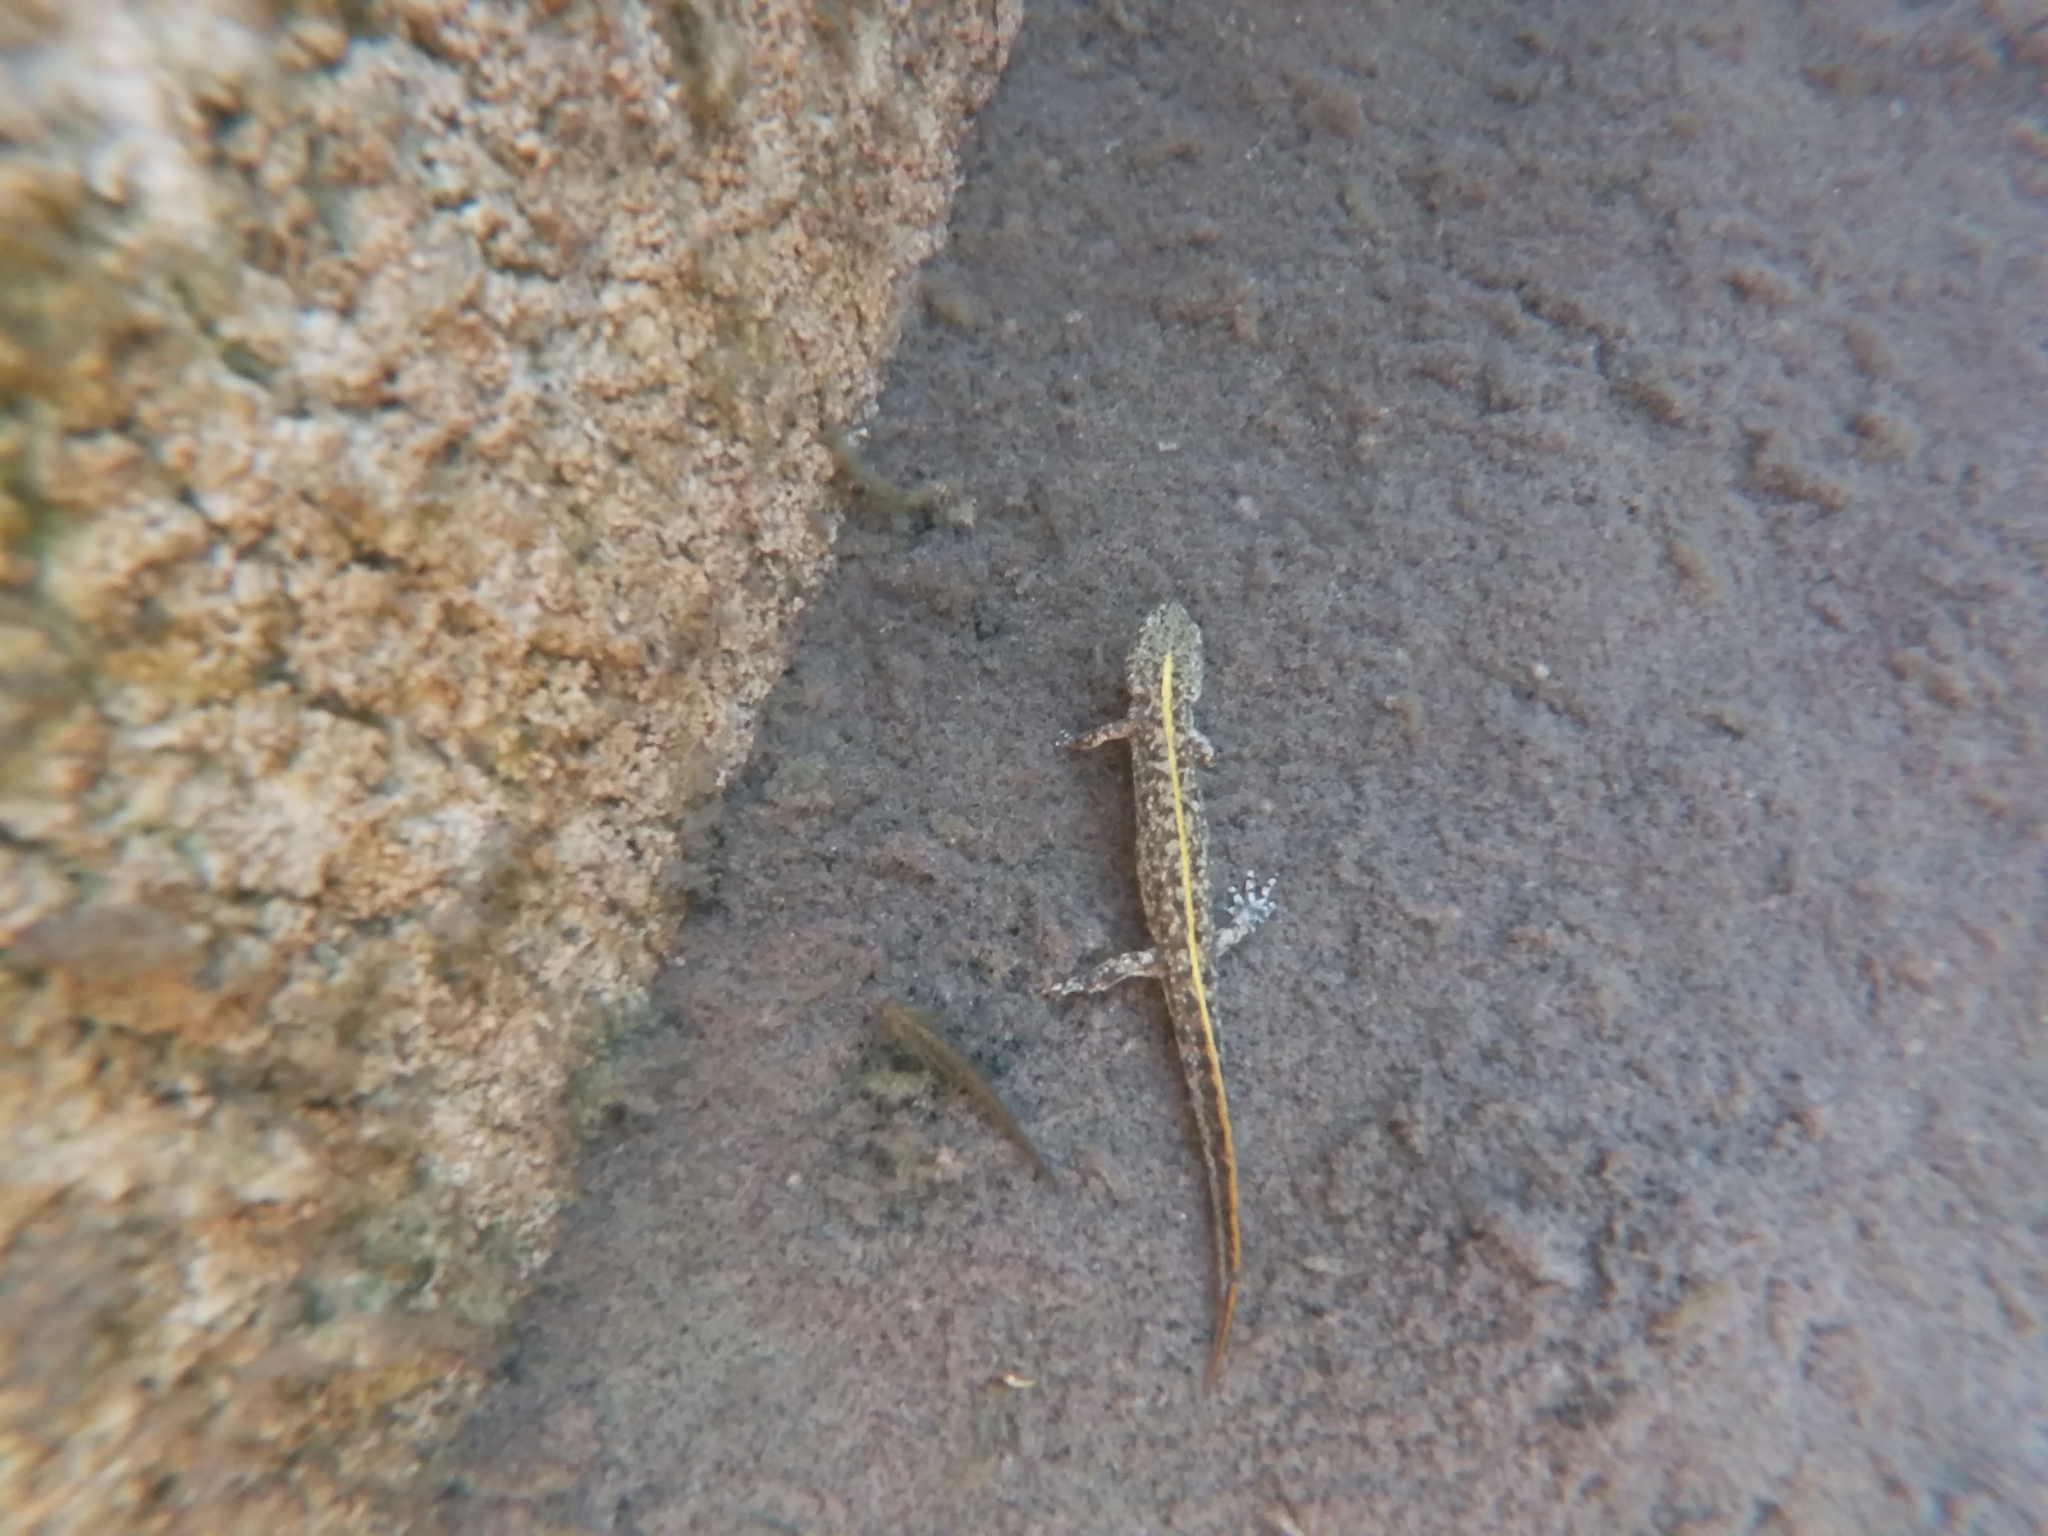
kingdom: Animalia
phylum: Chordata
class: Amphibia
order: Caudata
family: Salamandridae
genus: Triturus
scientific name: Triturus carnifex
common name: Italian crested newt
